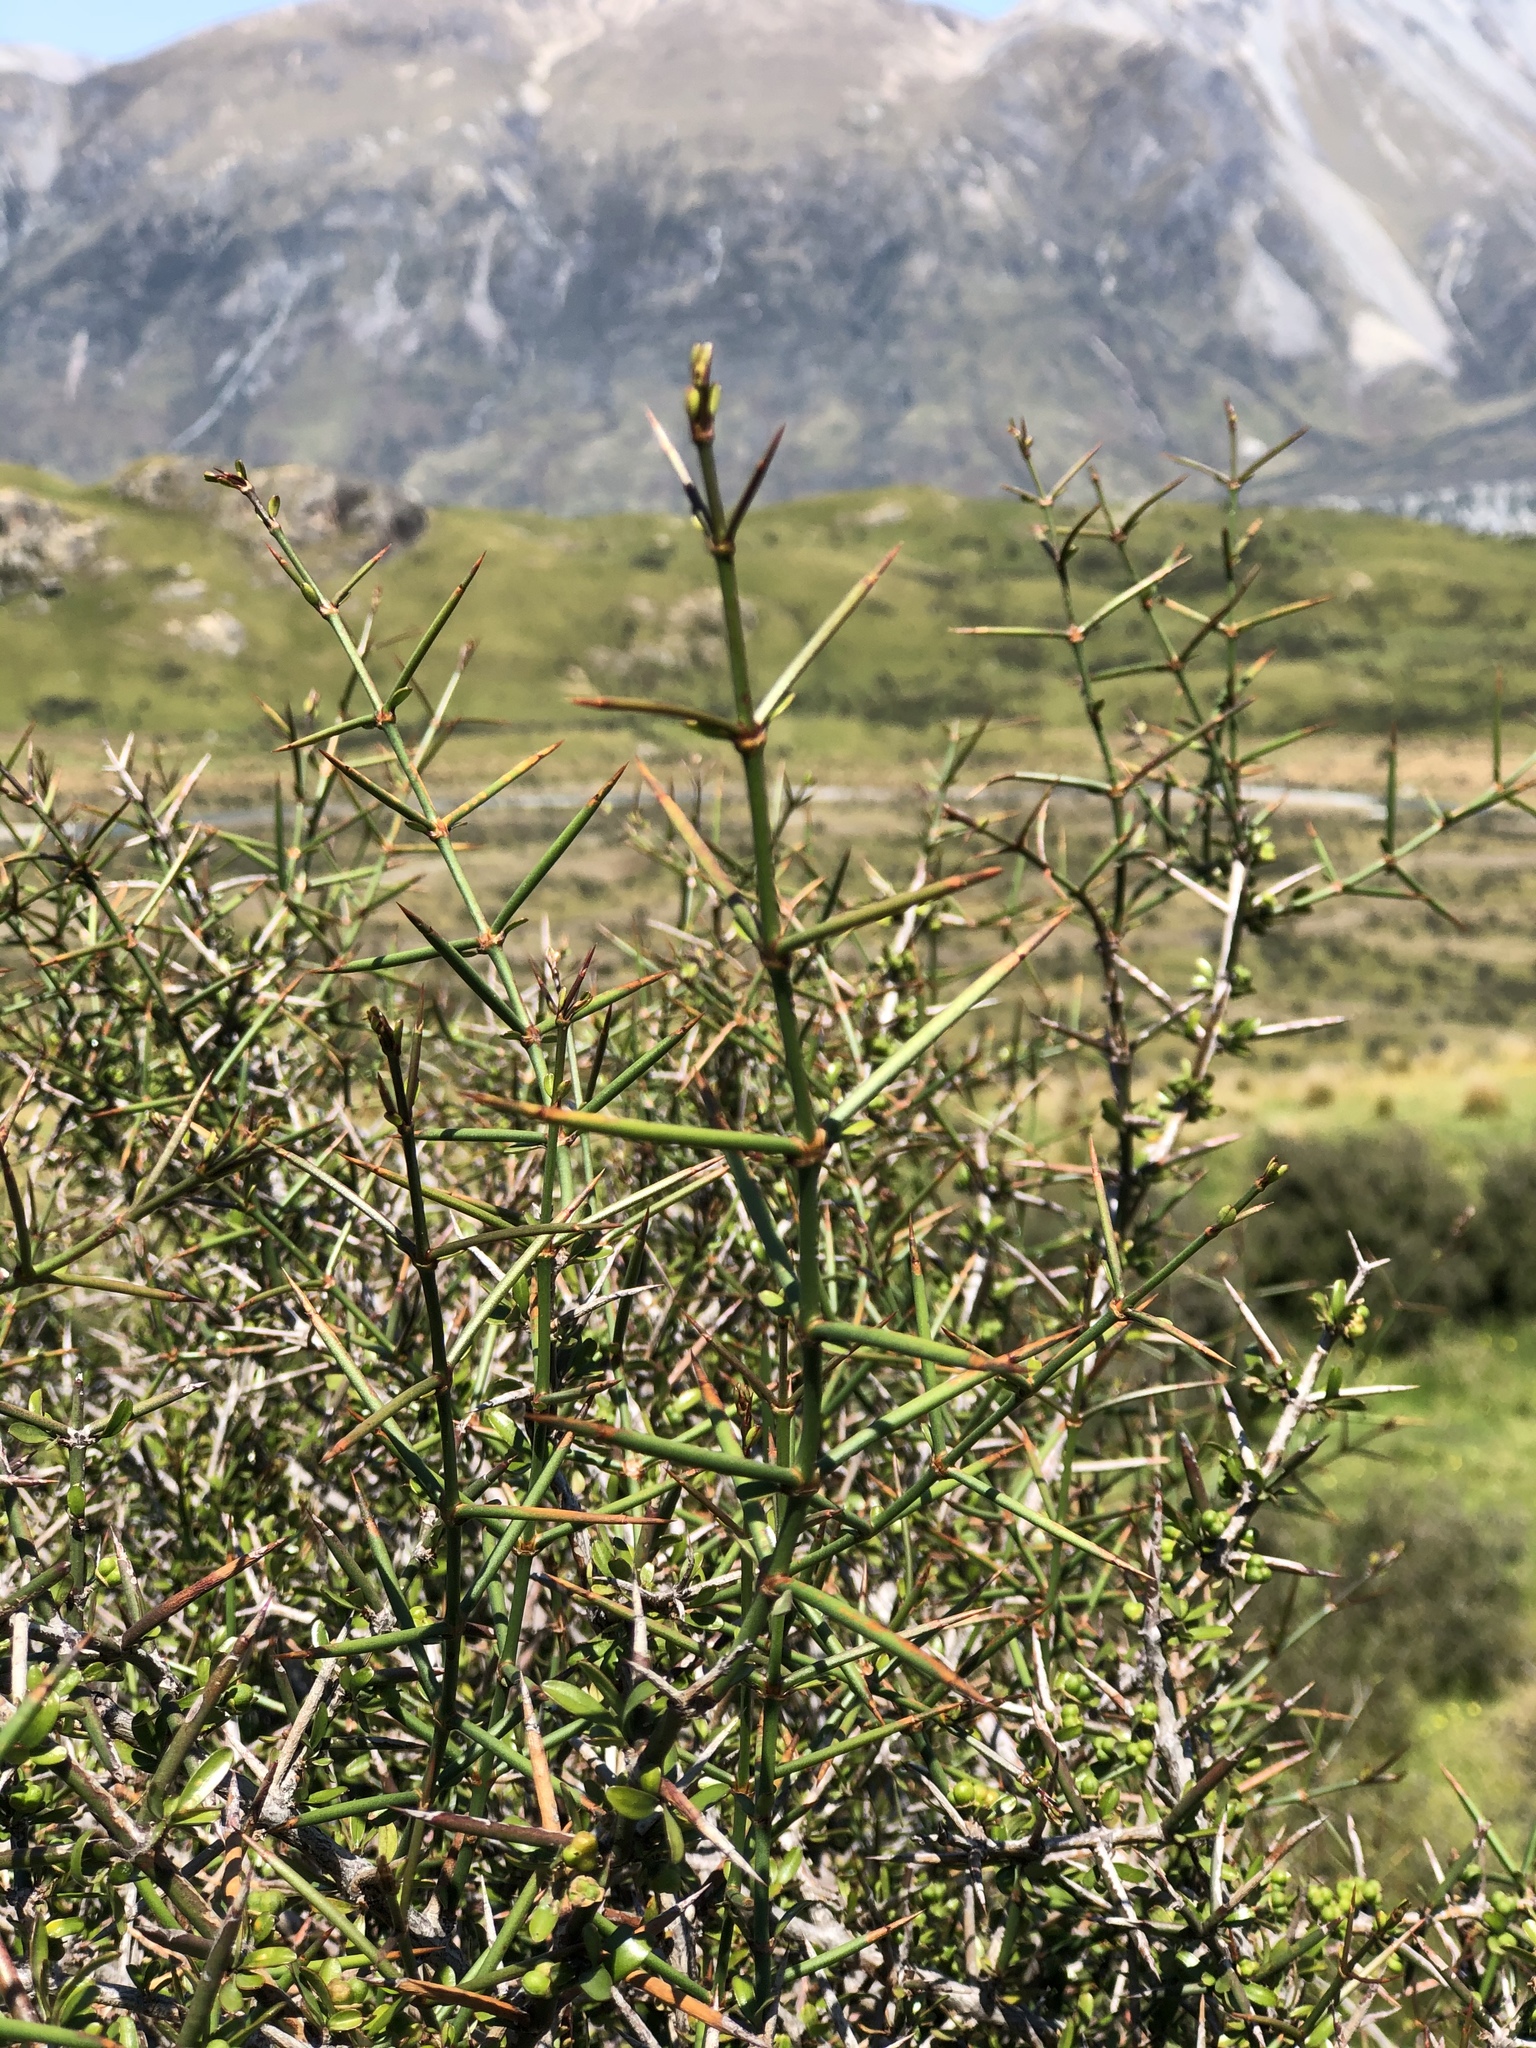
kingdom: Plantae
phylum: Tracheophyta
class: Magnoliopsida
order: Rosales
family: Rhamnaceae
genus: Discaria
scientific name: Discaria toumatou
